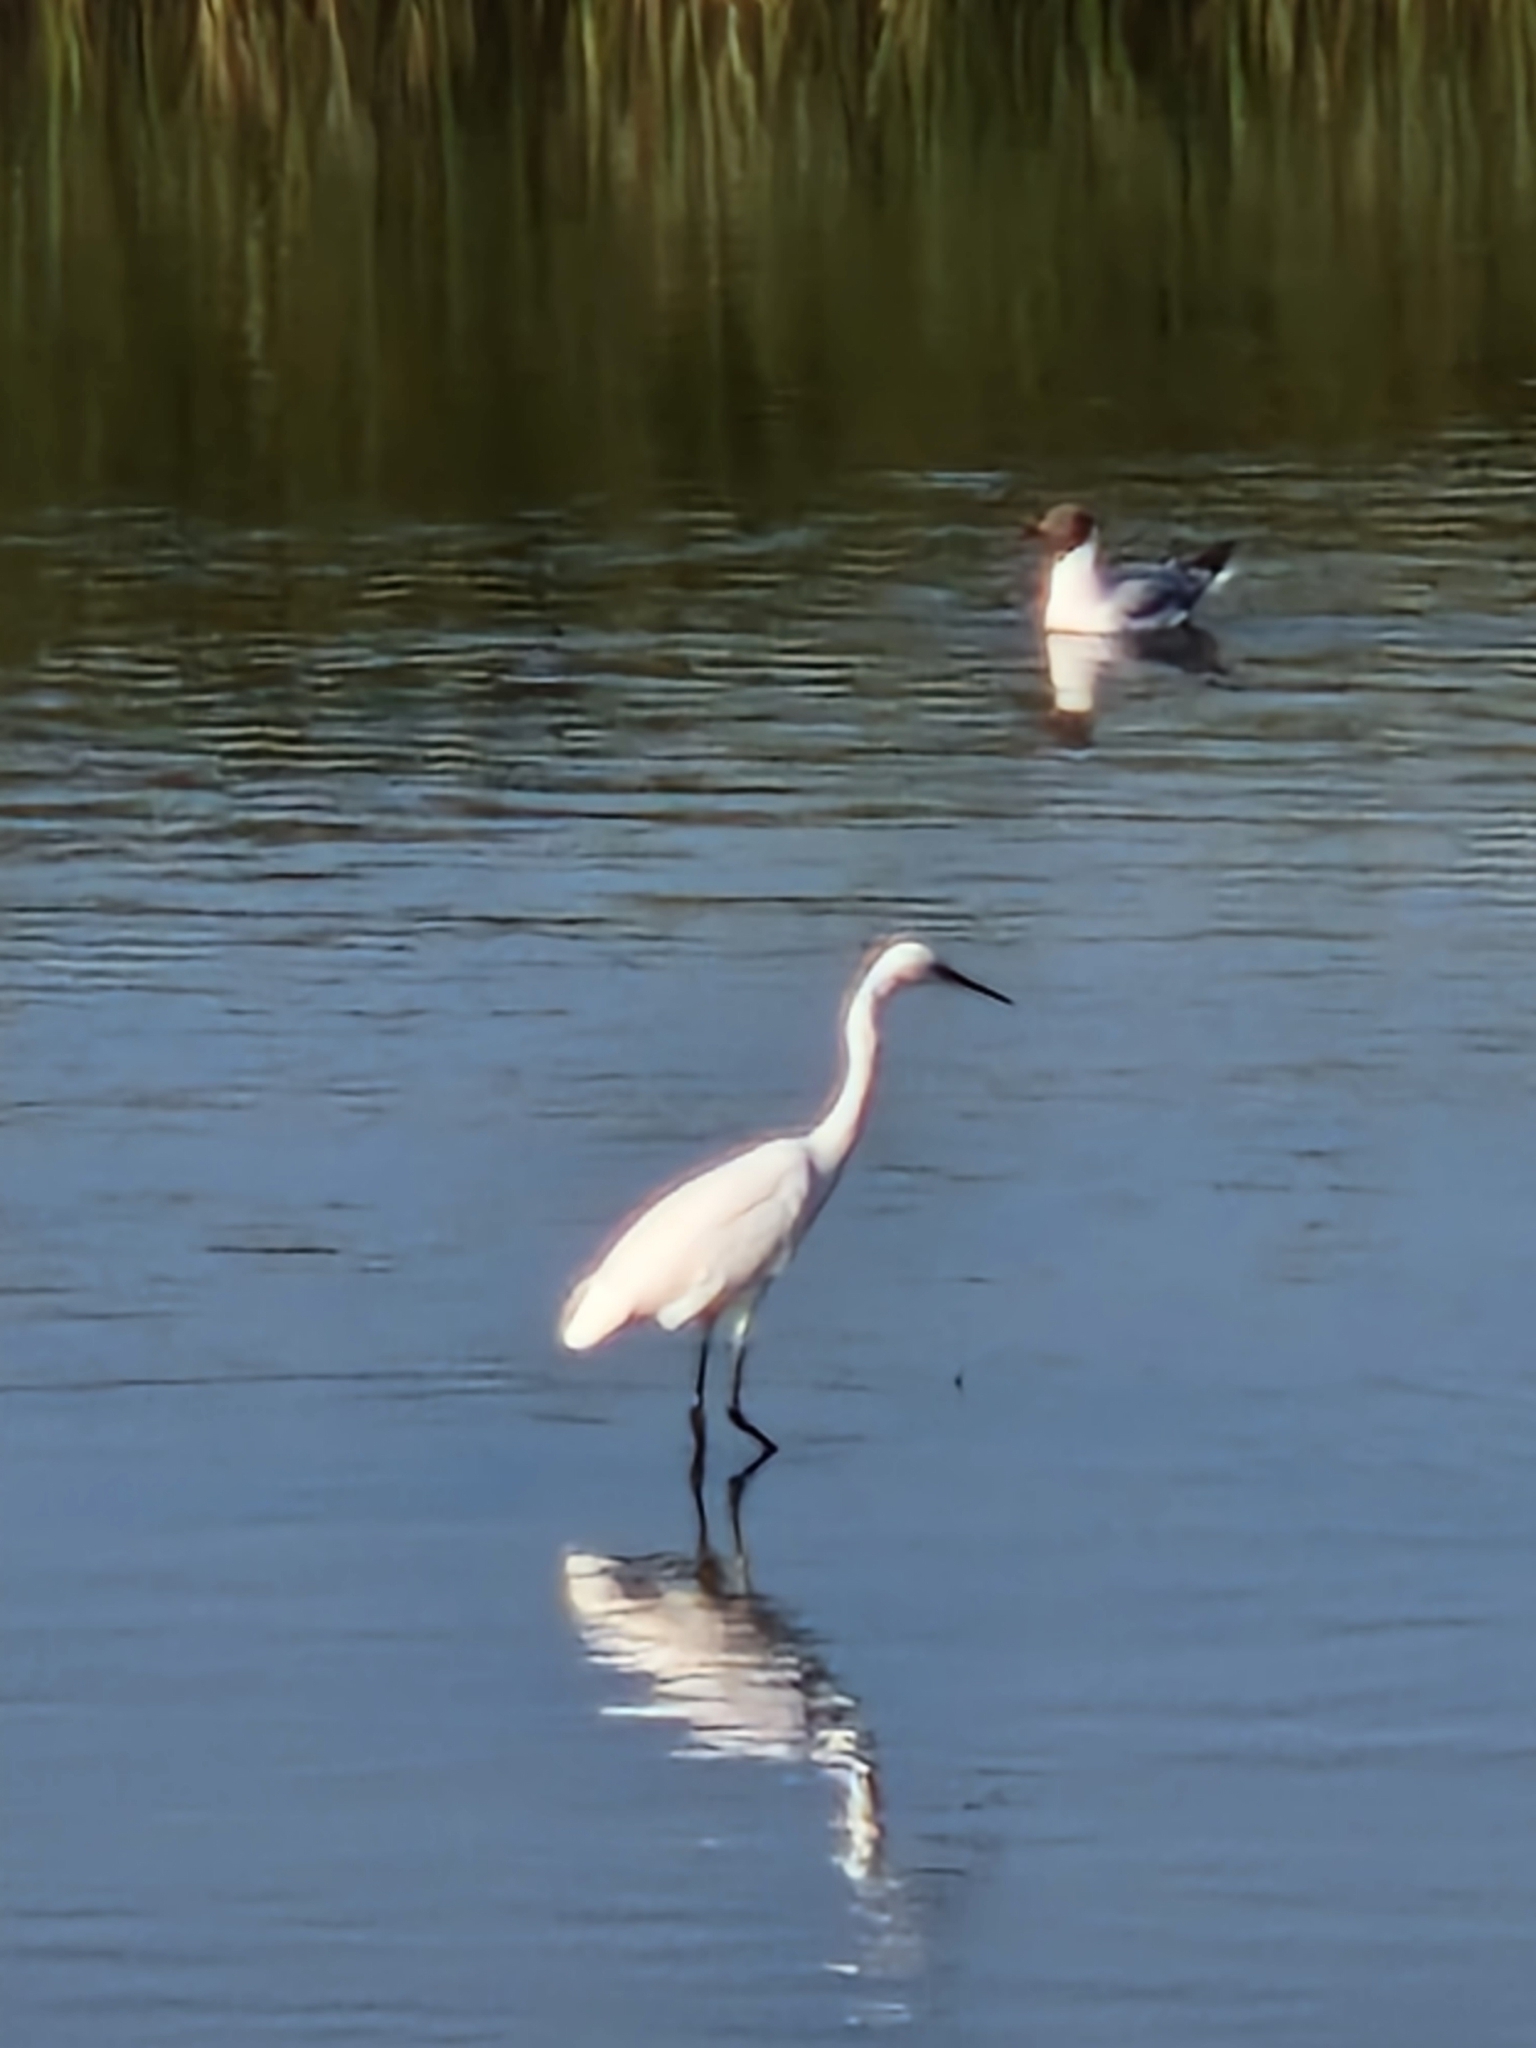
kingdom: Animalia
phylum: Chordata
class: Aves
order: Pelecaniformes
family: Ardeidae
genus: Egretta
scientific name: Egretta garzetta
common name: Little egret
